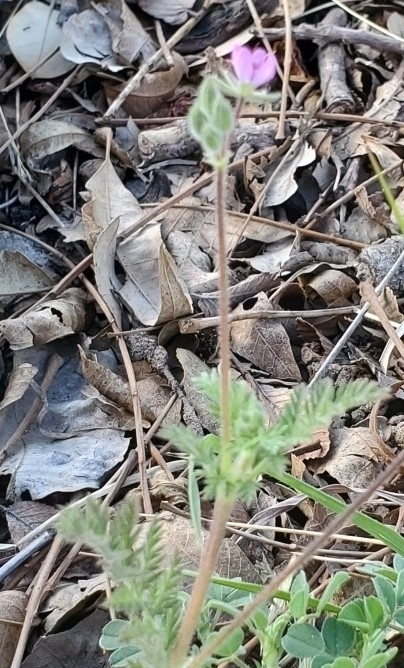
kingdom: Plantae
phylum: Tracheophyta
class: Magnoliopsida
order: Geraniales
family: Geraniaceae
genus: Erodium
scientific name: Erodium cicutarium
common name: Common stork's-bill
